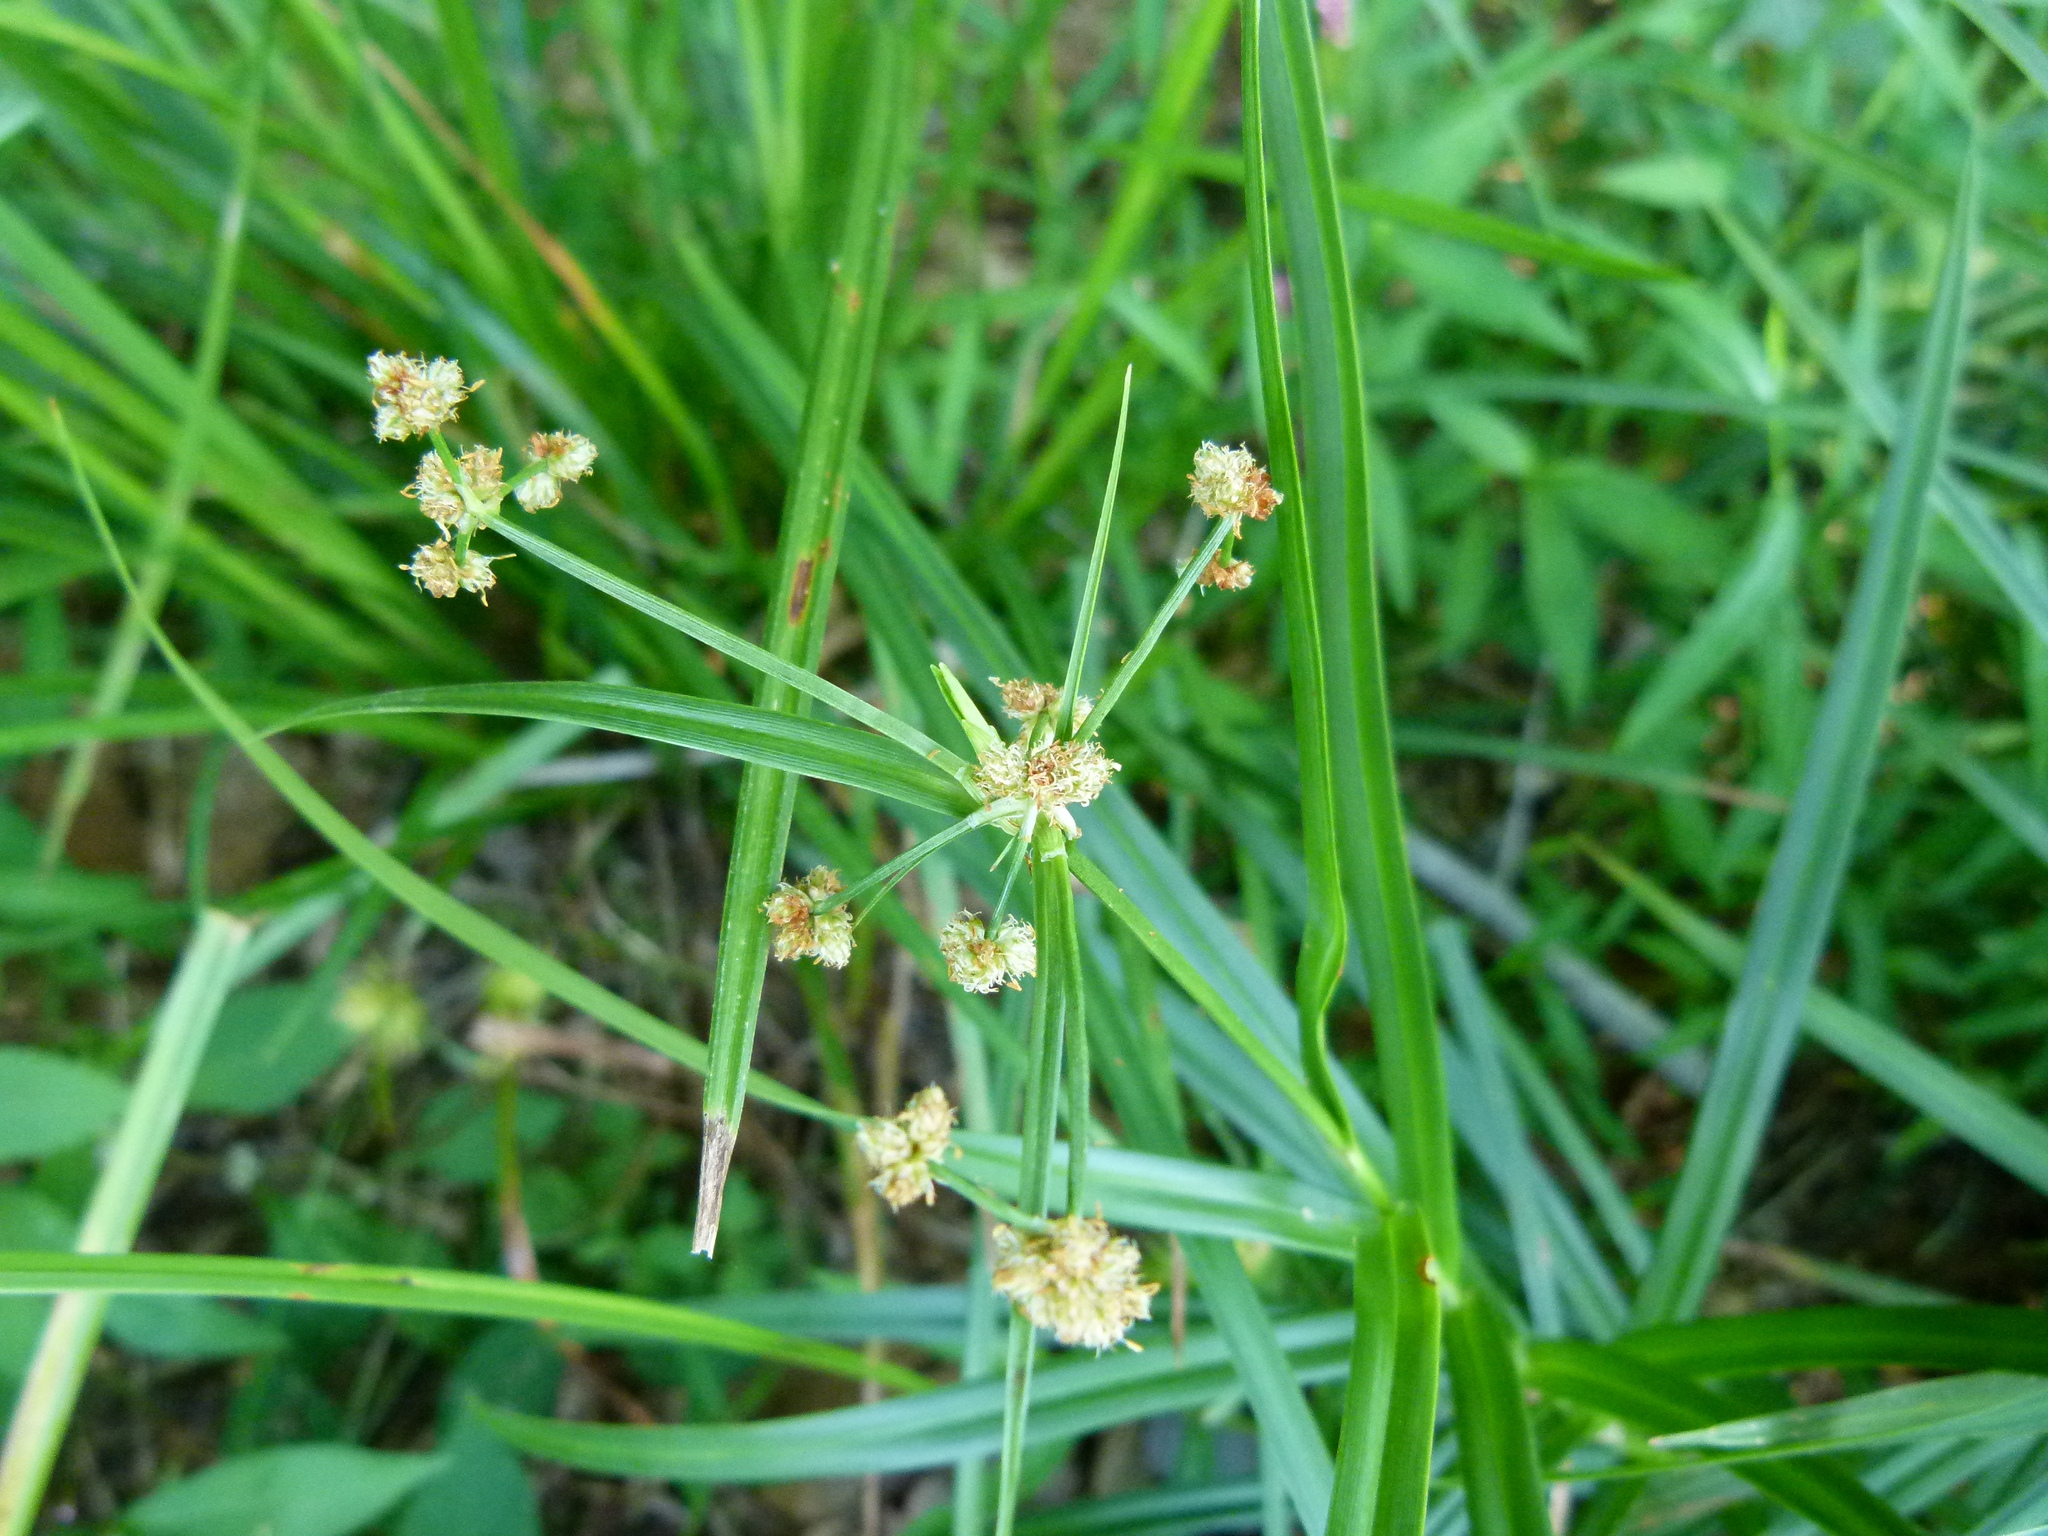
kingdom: Plantae
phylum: Tracheophyta
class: Liliopsida
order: Poales
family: Cyperaceae
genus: Scirpus
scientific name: Scirpus polyphyllus
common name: Leafy bulrush
